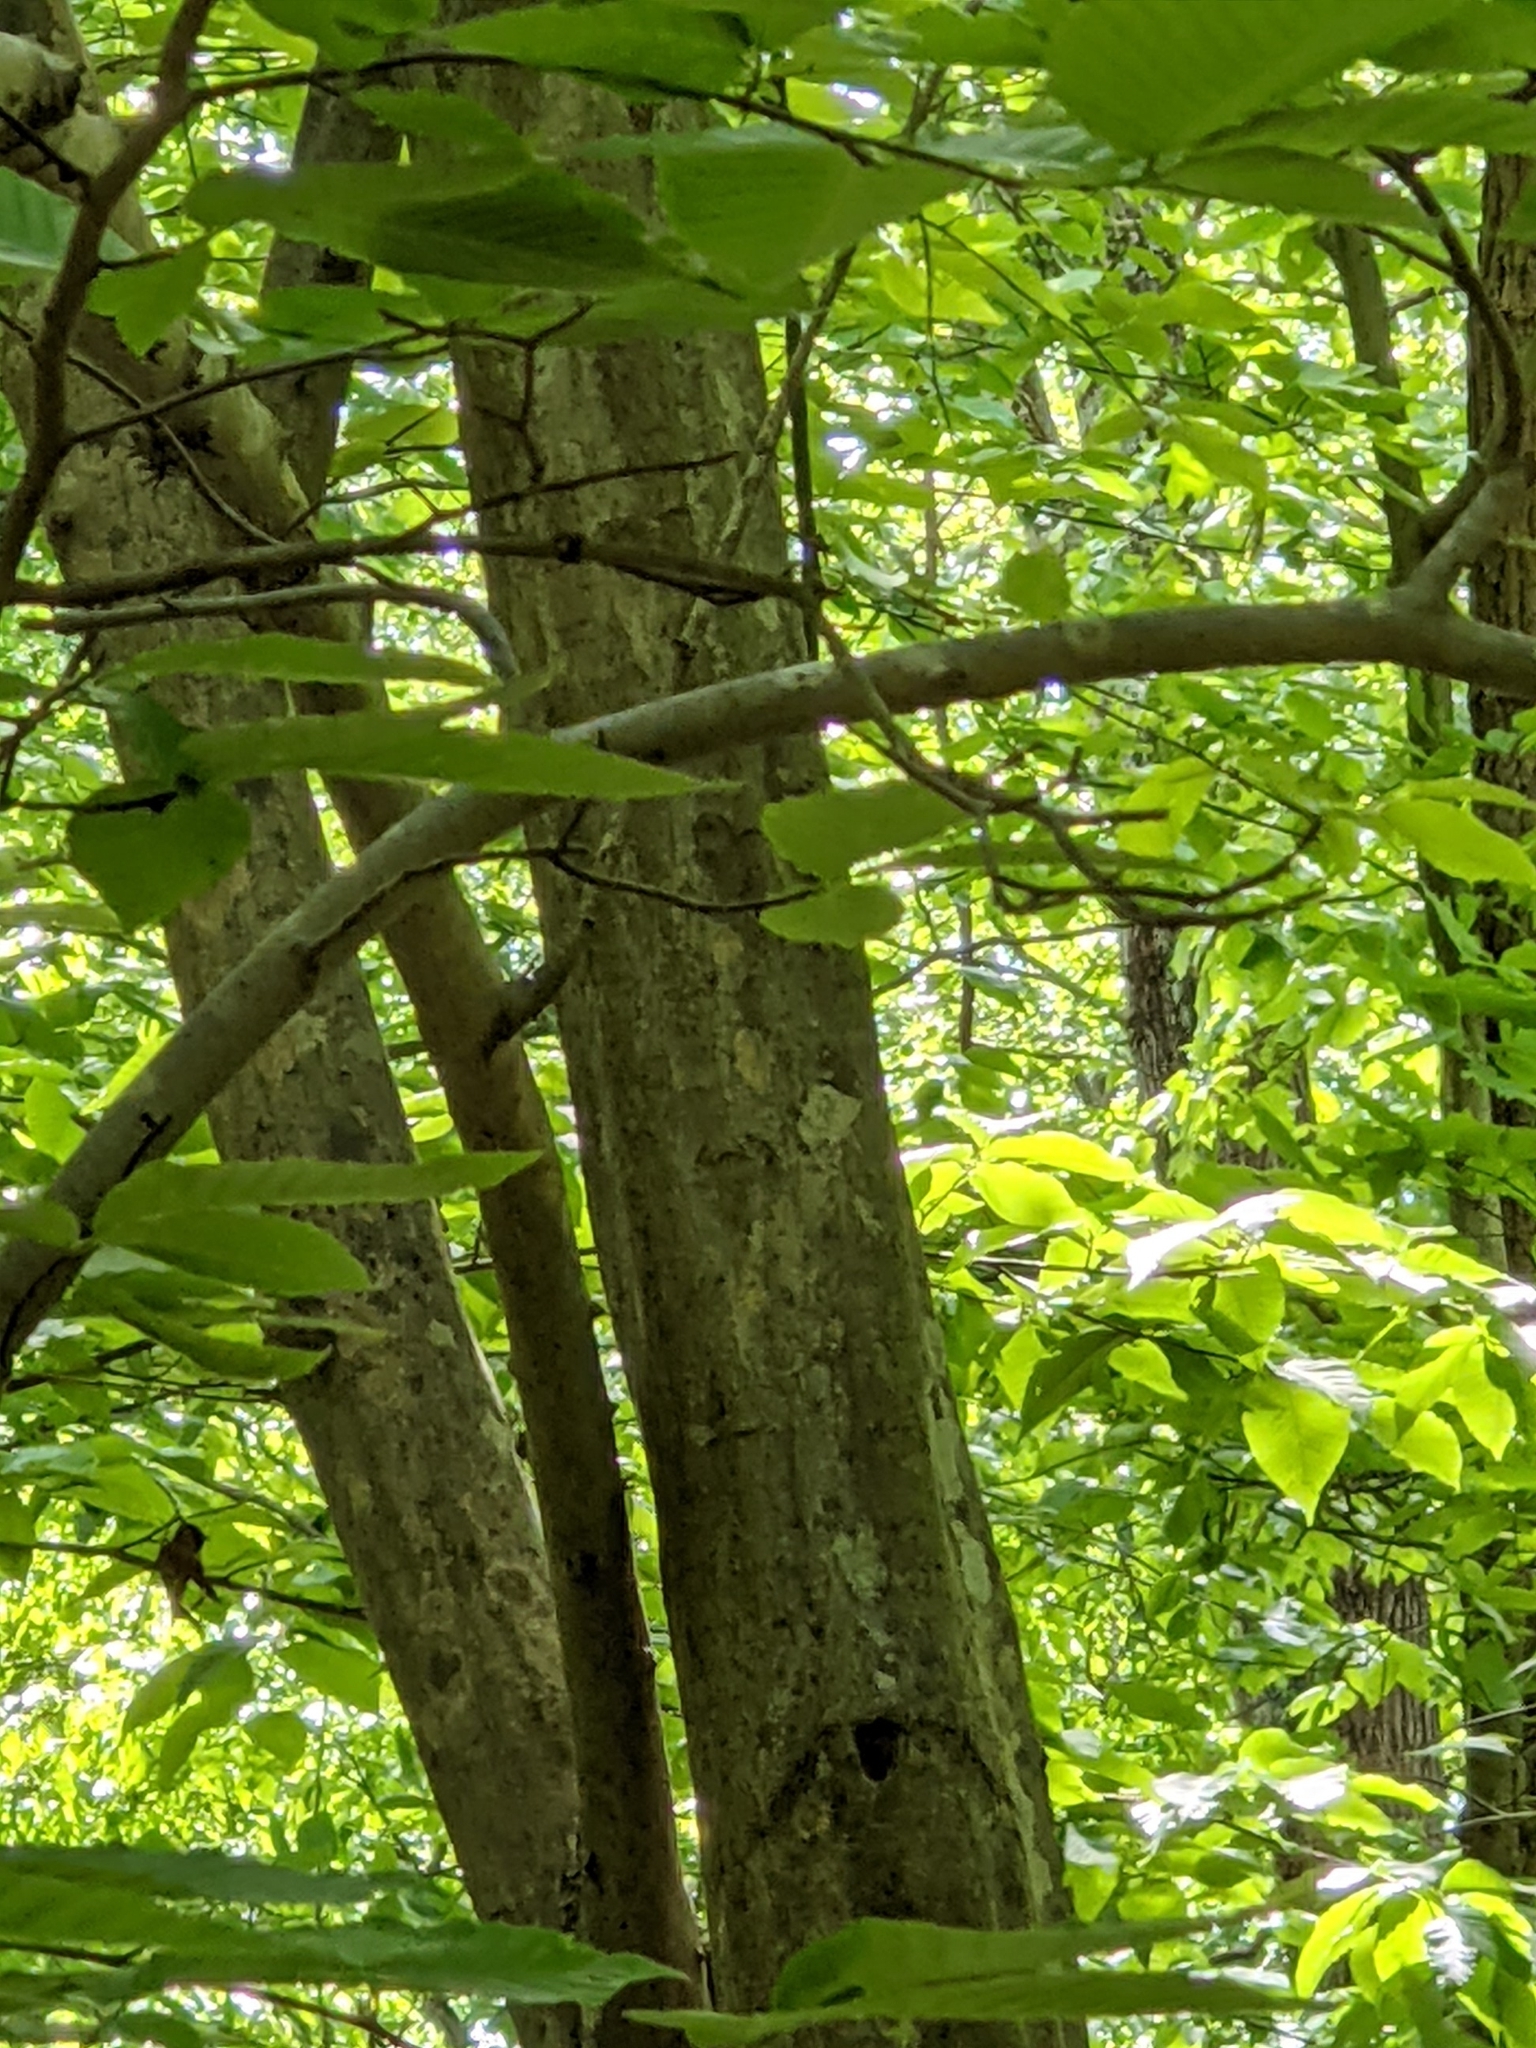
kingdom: Plantae
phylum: Tracheophyta
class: Magnoliopsida
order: Fagales
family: Betulaceae
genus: Carpinus
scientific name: Carpinus caroliniana
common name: American hornbeam
